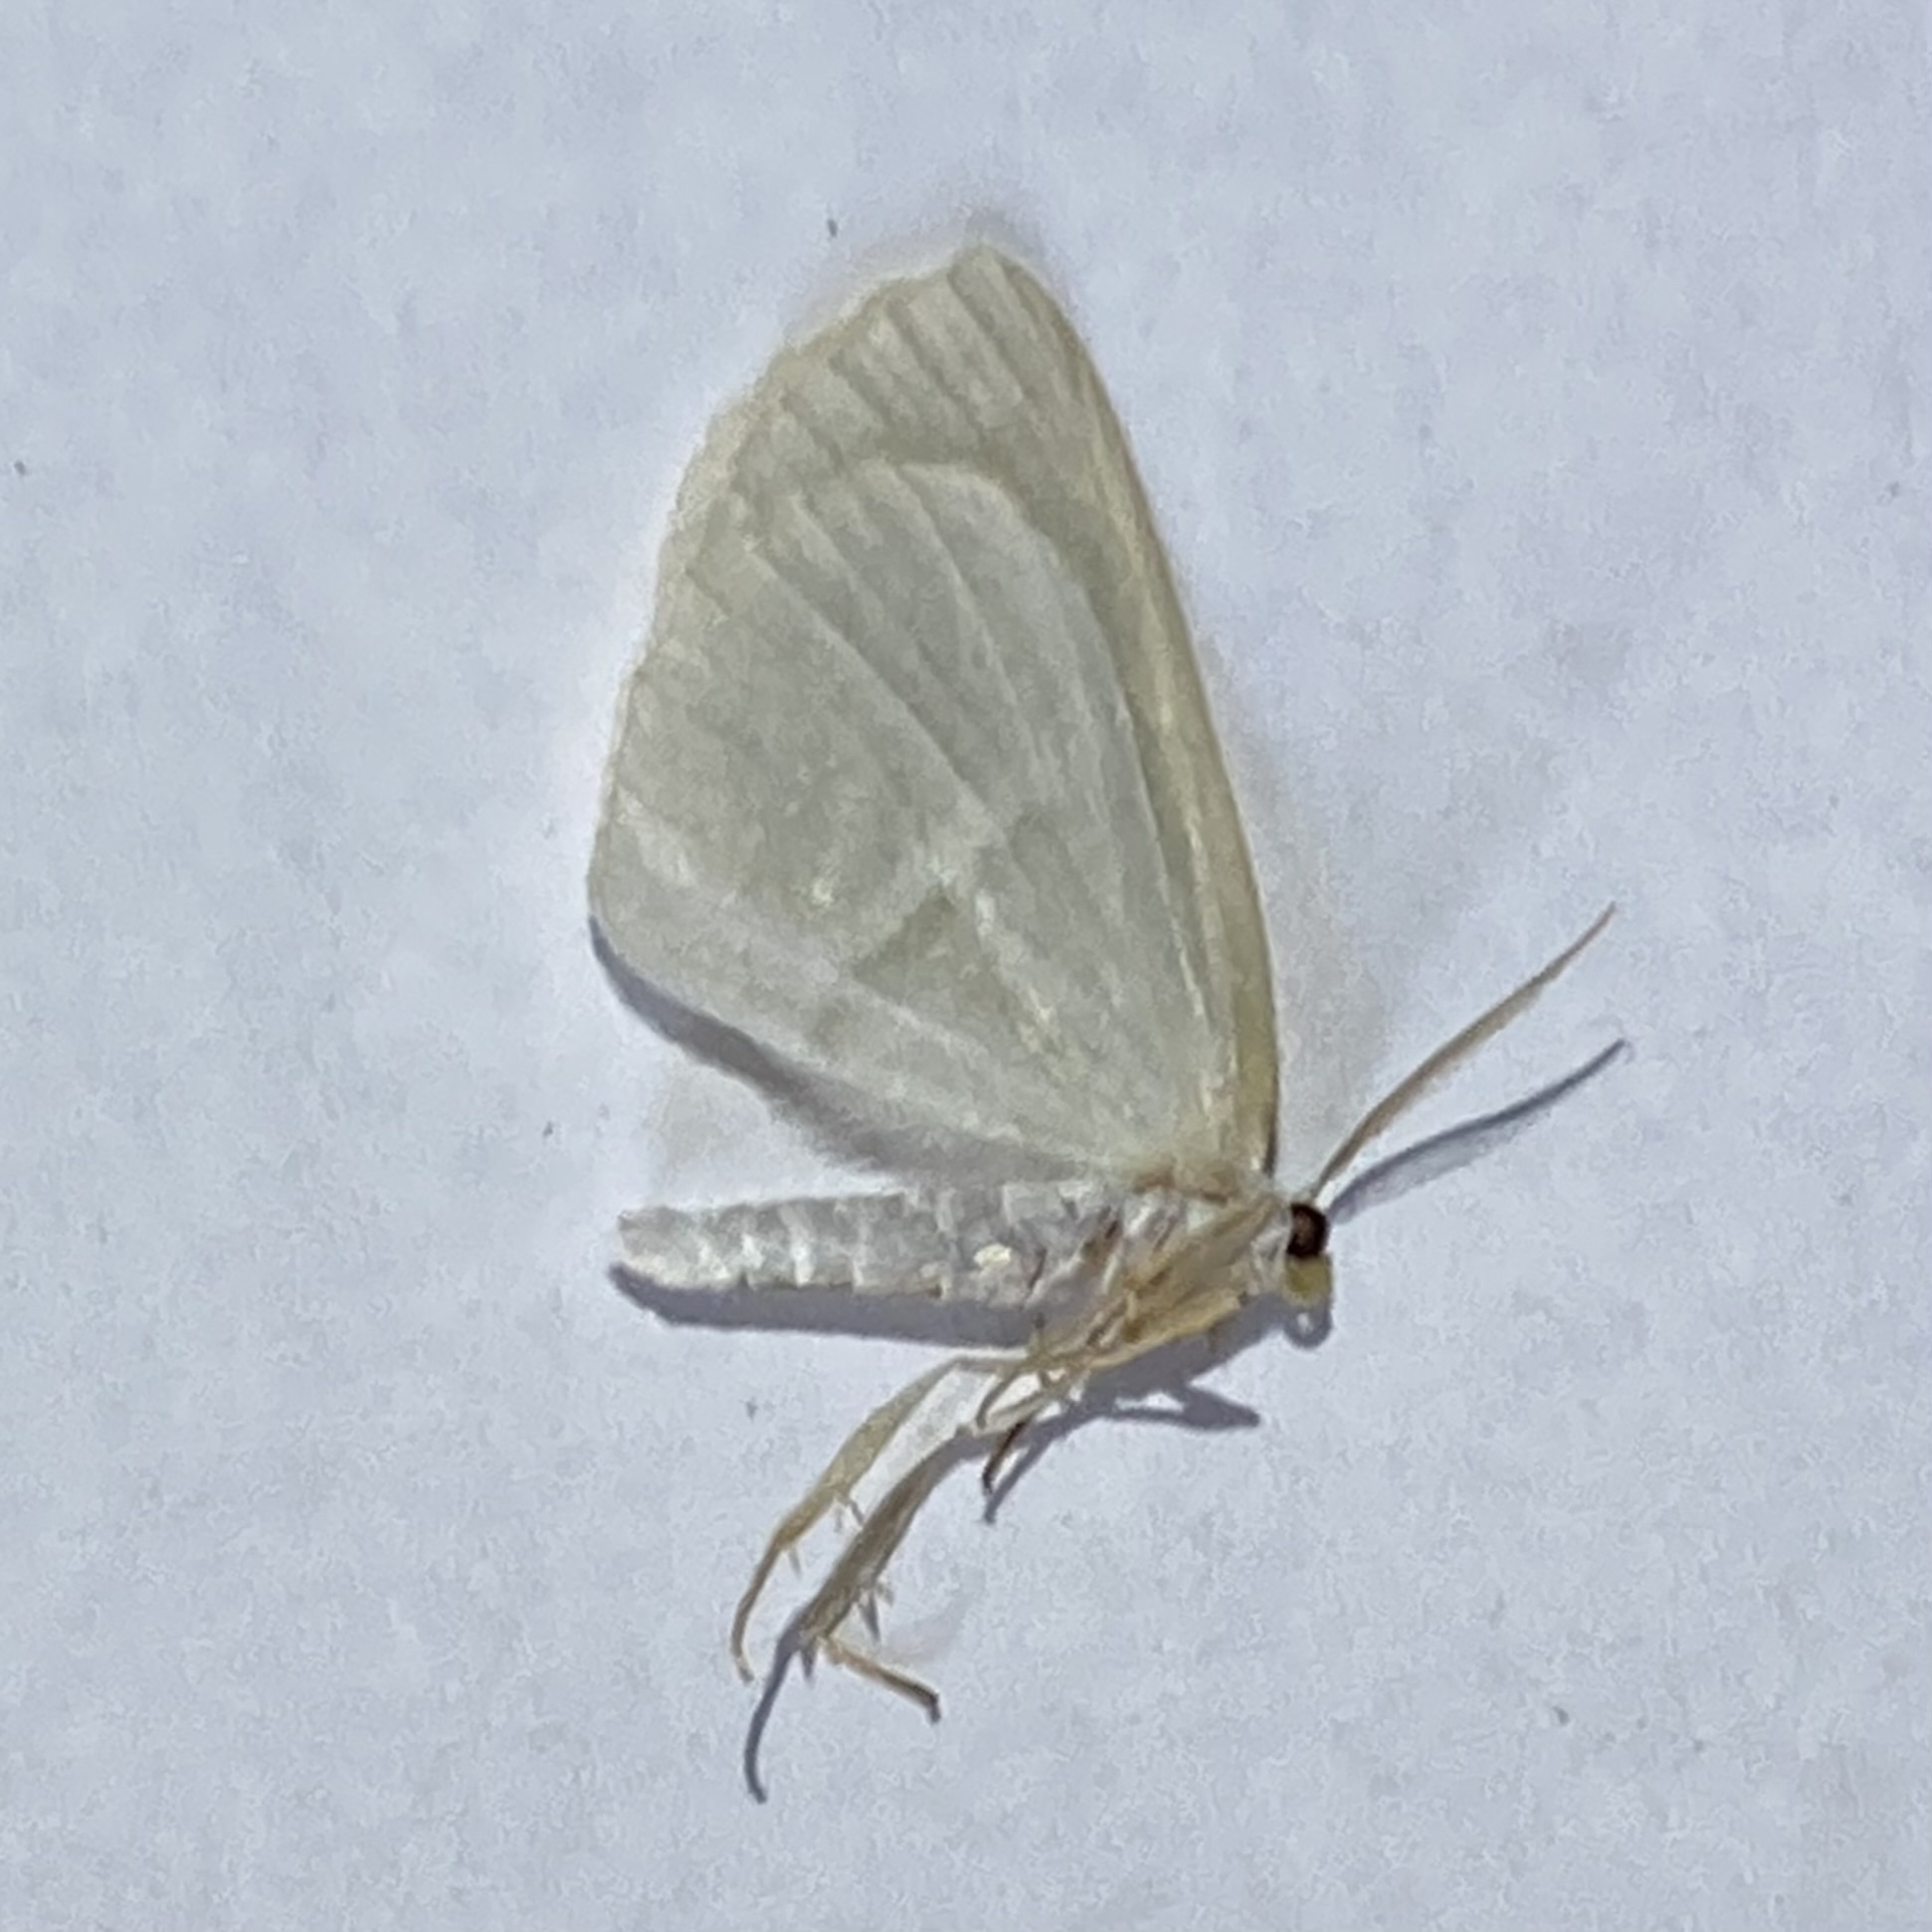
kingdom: Animalia
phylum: Arthropoda
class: Insecta
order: Lepidoptera
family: Geometridae
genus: Campaea
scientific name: Campaea perlata
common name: Fringed looper
